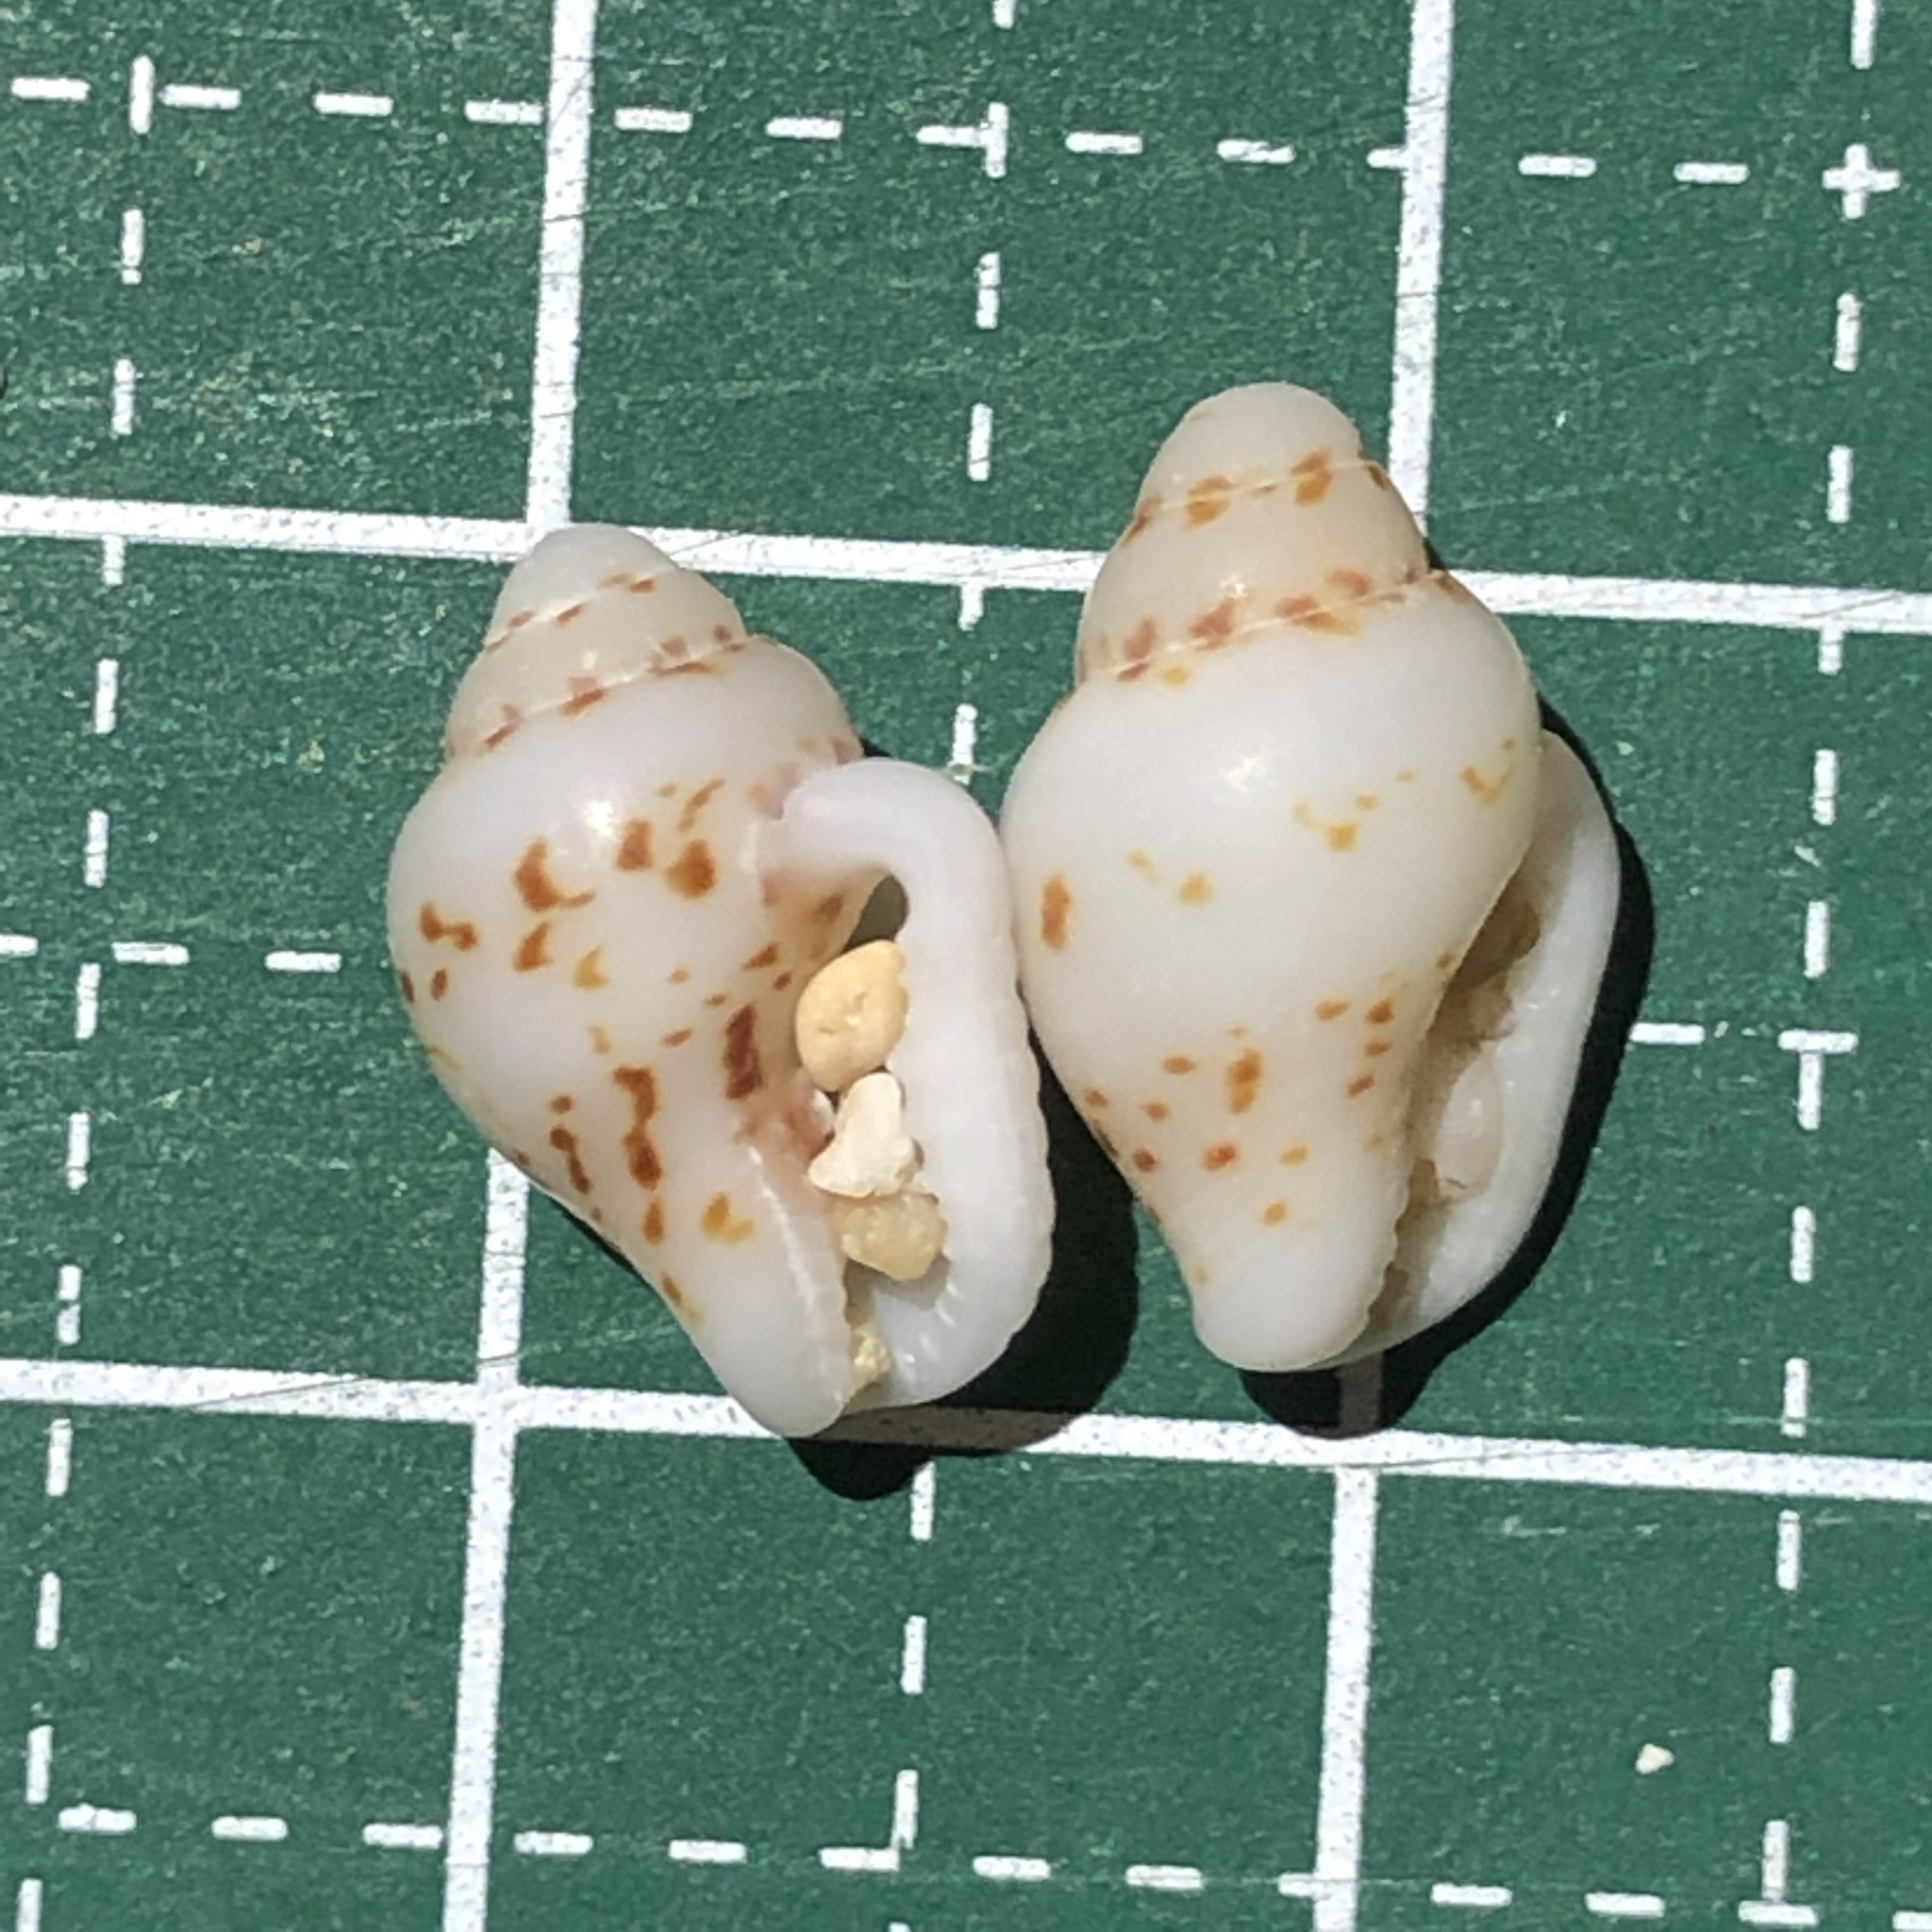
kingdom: Animalia
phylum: Mollusca
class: Gastropoda
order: Neogastropoda
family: Columbellidae
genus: Euplica
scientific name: Euplica scripta
